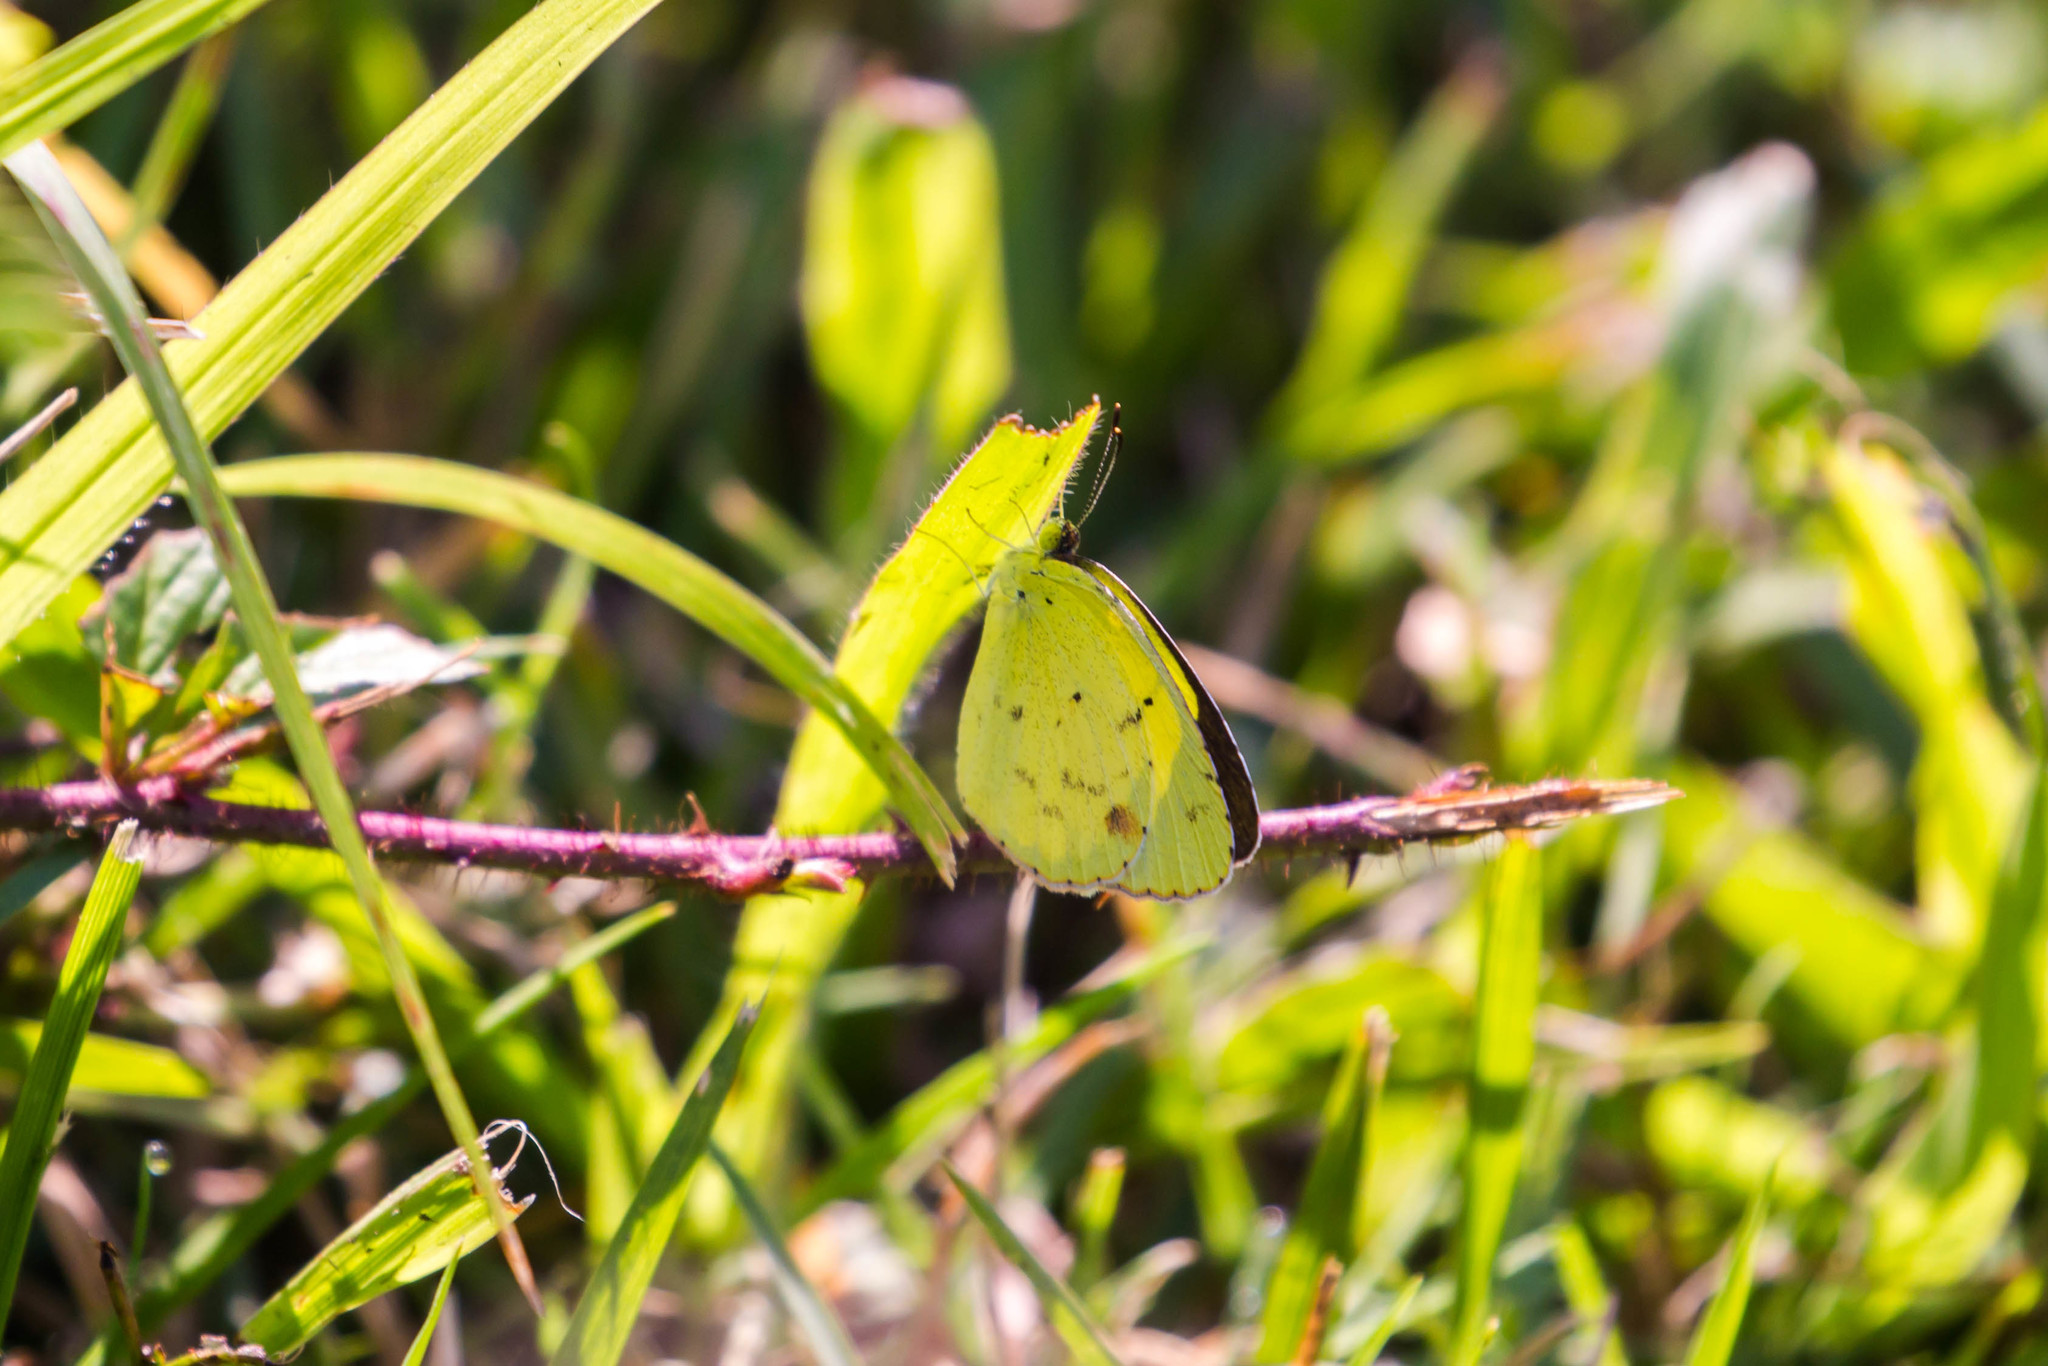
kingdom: Animalia
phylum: Arthropoda
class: Insecta
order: Lepidoptera
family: Pieridae
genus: Pyrisitia
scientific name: Pyrisitia lisa
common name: Little yellow
